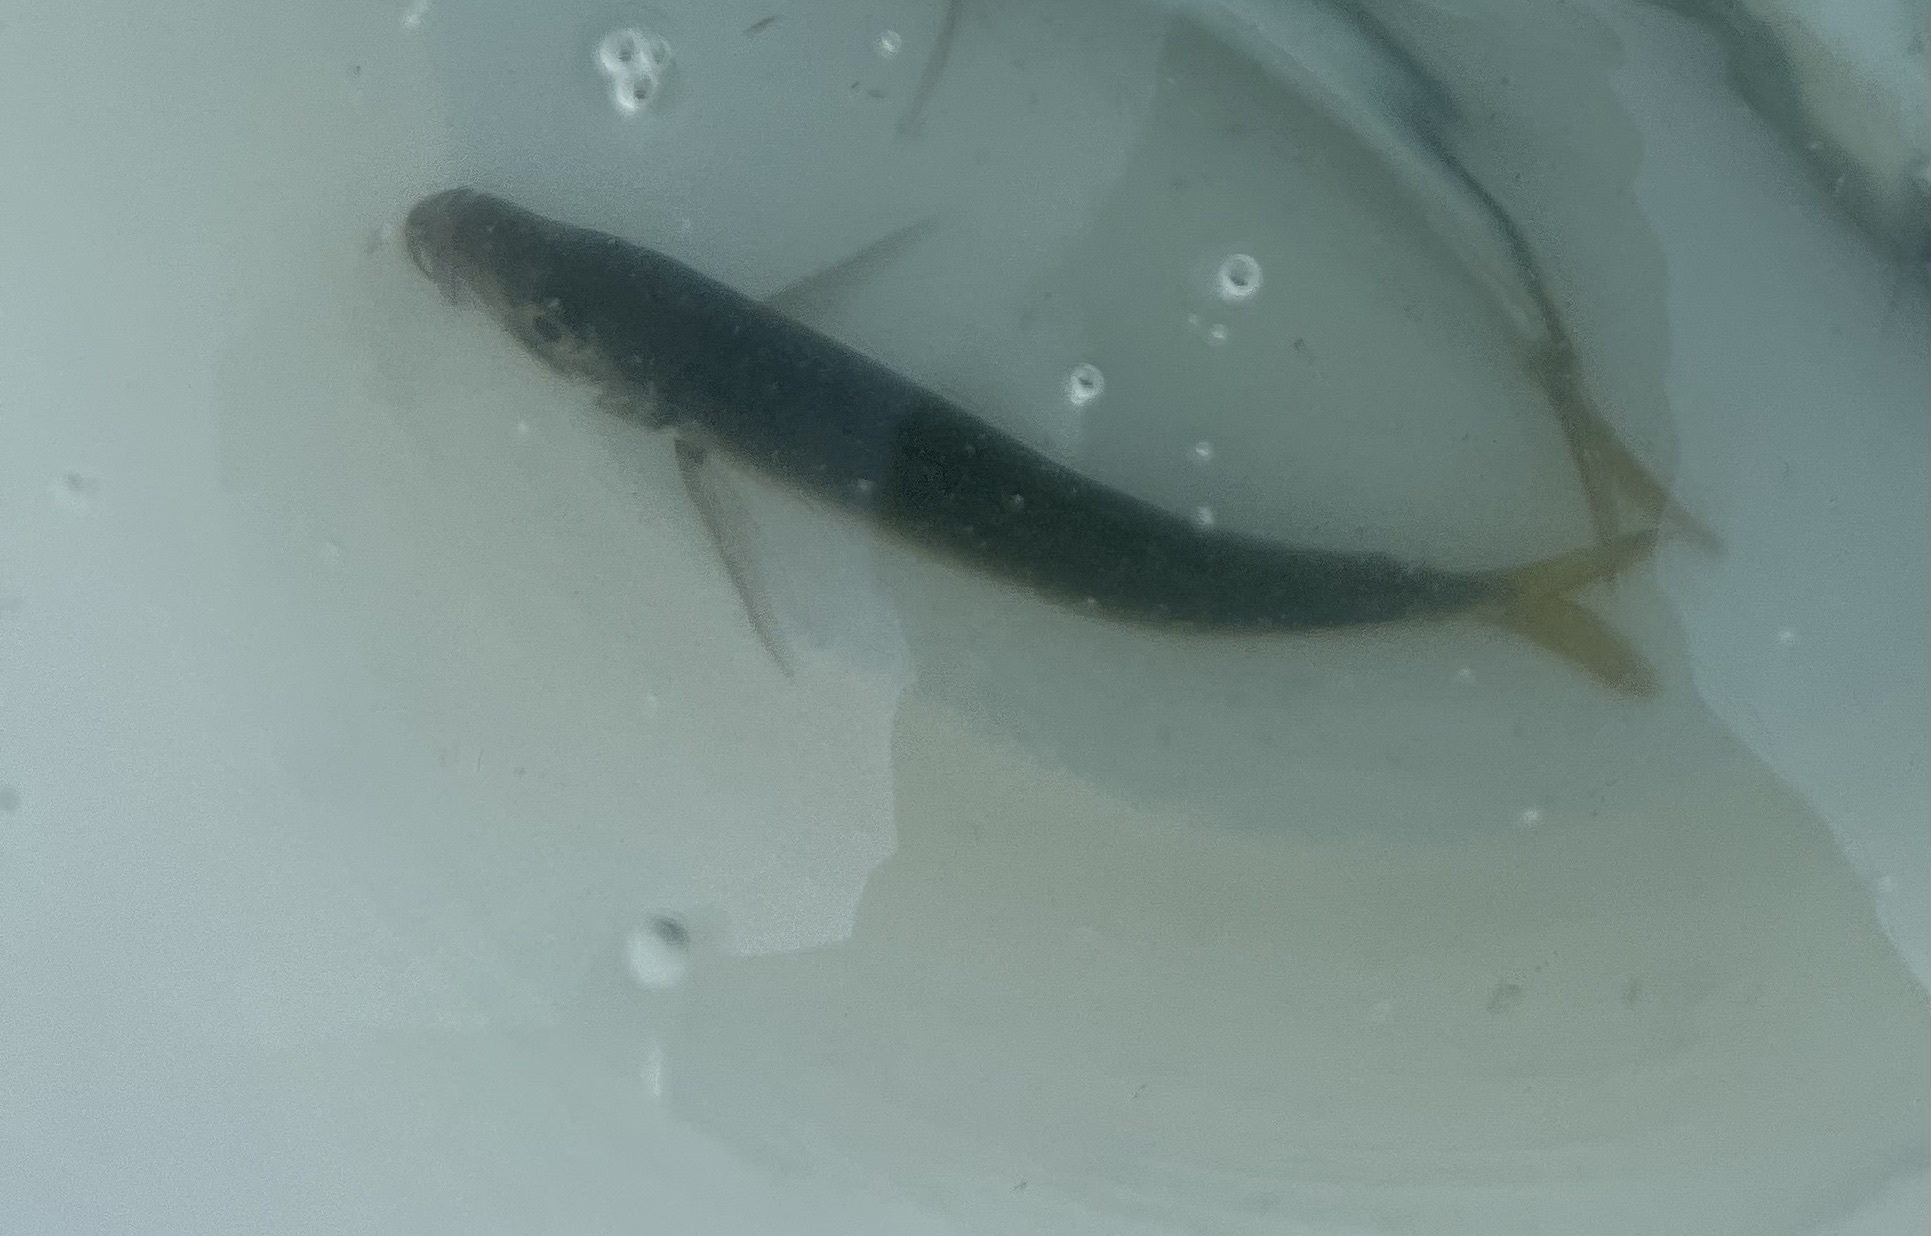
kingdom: Animalia
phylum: Chordata
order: Perciformes
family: Carangidae
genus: Trachurus
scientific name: Trachurus symmetricus
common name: Jack mackerel
